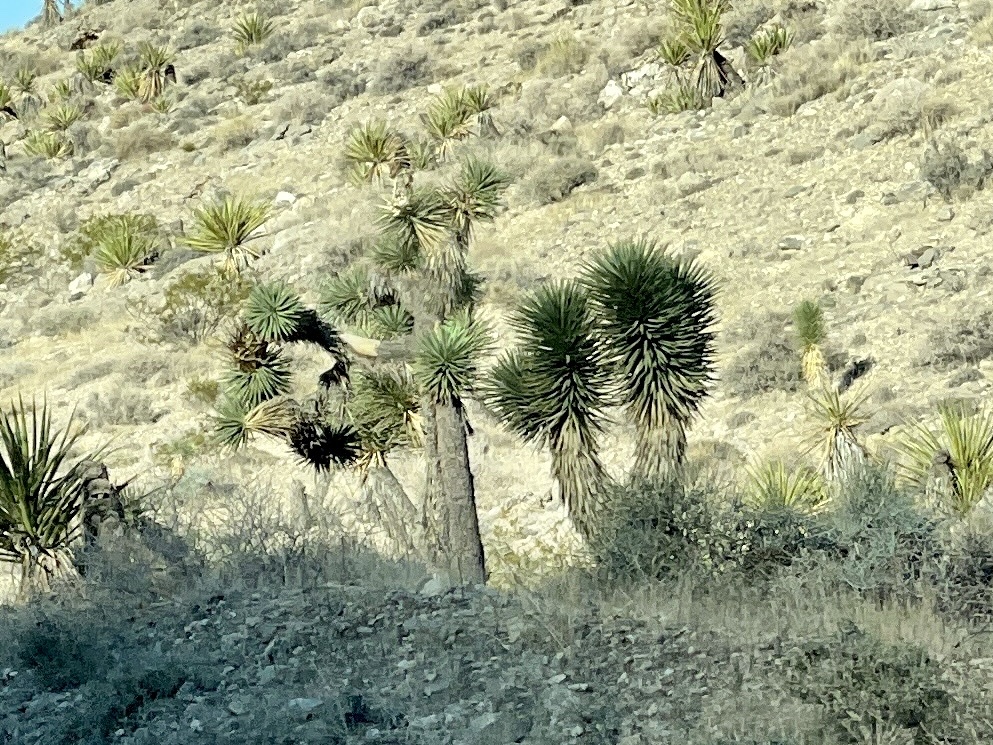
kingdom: Plantae
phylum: Tracheophyta
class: Liliopsida
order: Asparagales
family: Asparagaceae
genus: Yucca
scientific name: Yucca brevifolia
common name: Joshua tree
